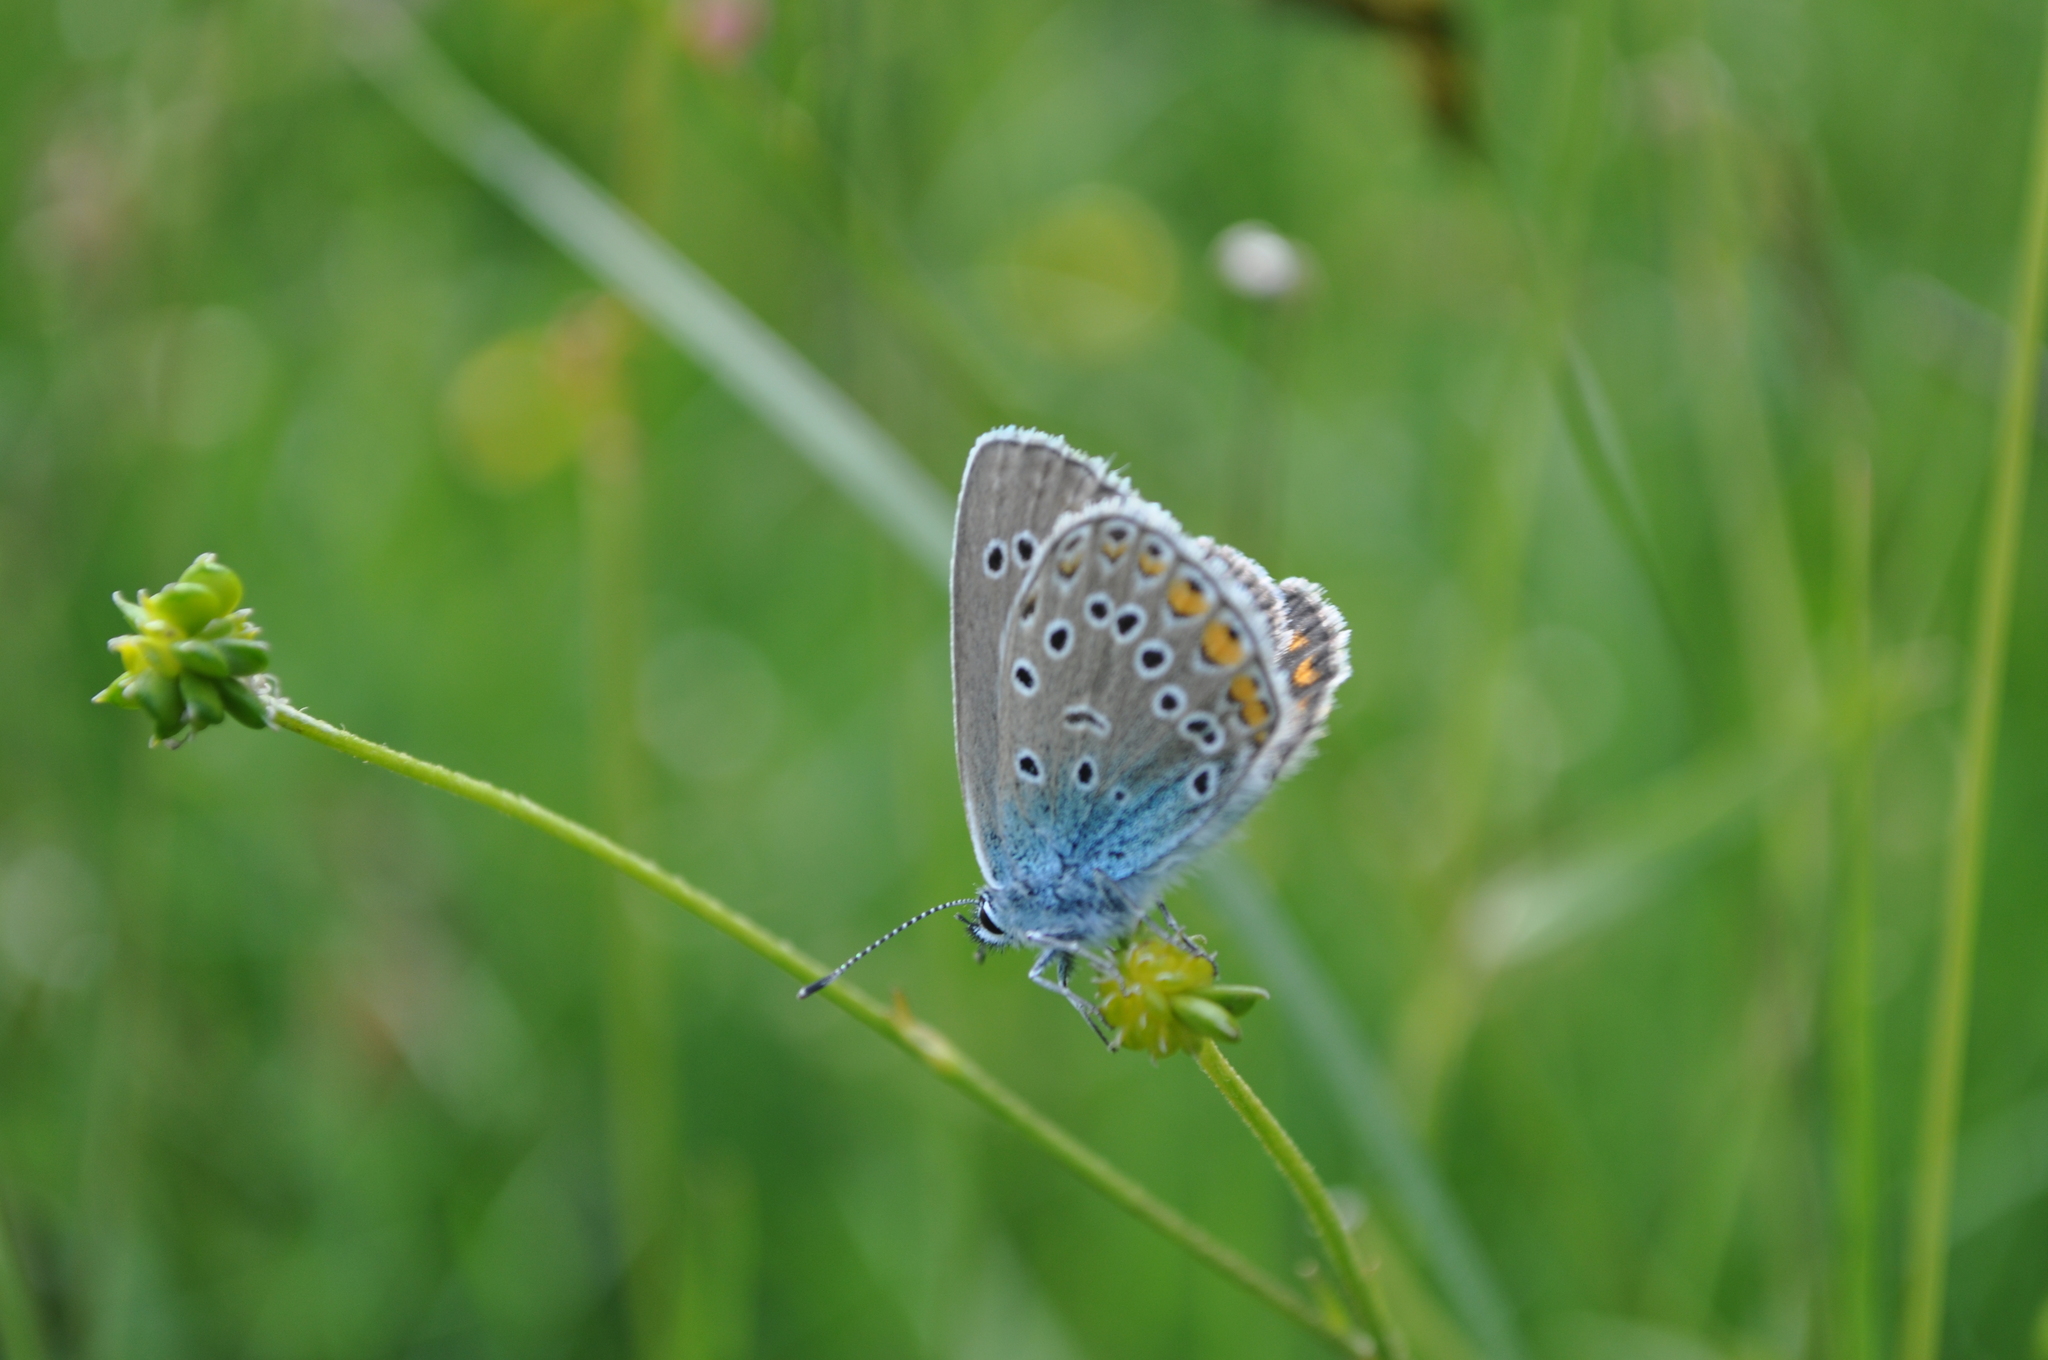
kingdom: Animalia
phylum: Arthropoda
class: Insecta
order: Lepidoptera
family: Lycaenidae
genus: Plebejus
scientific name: Plebejus amanda
